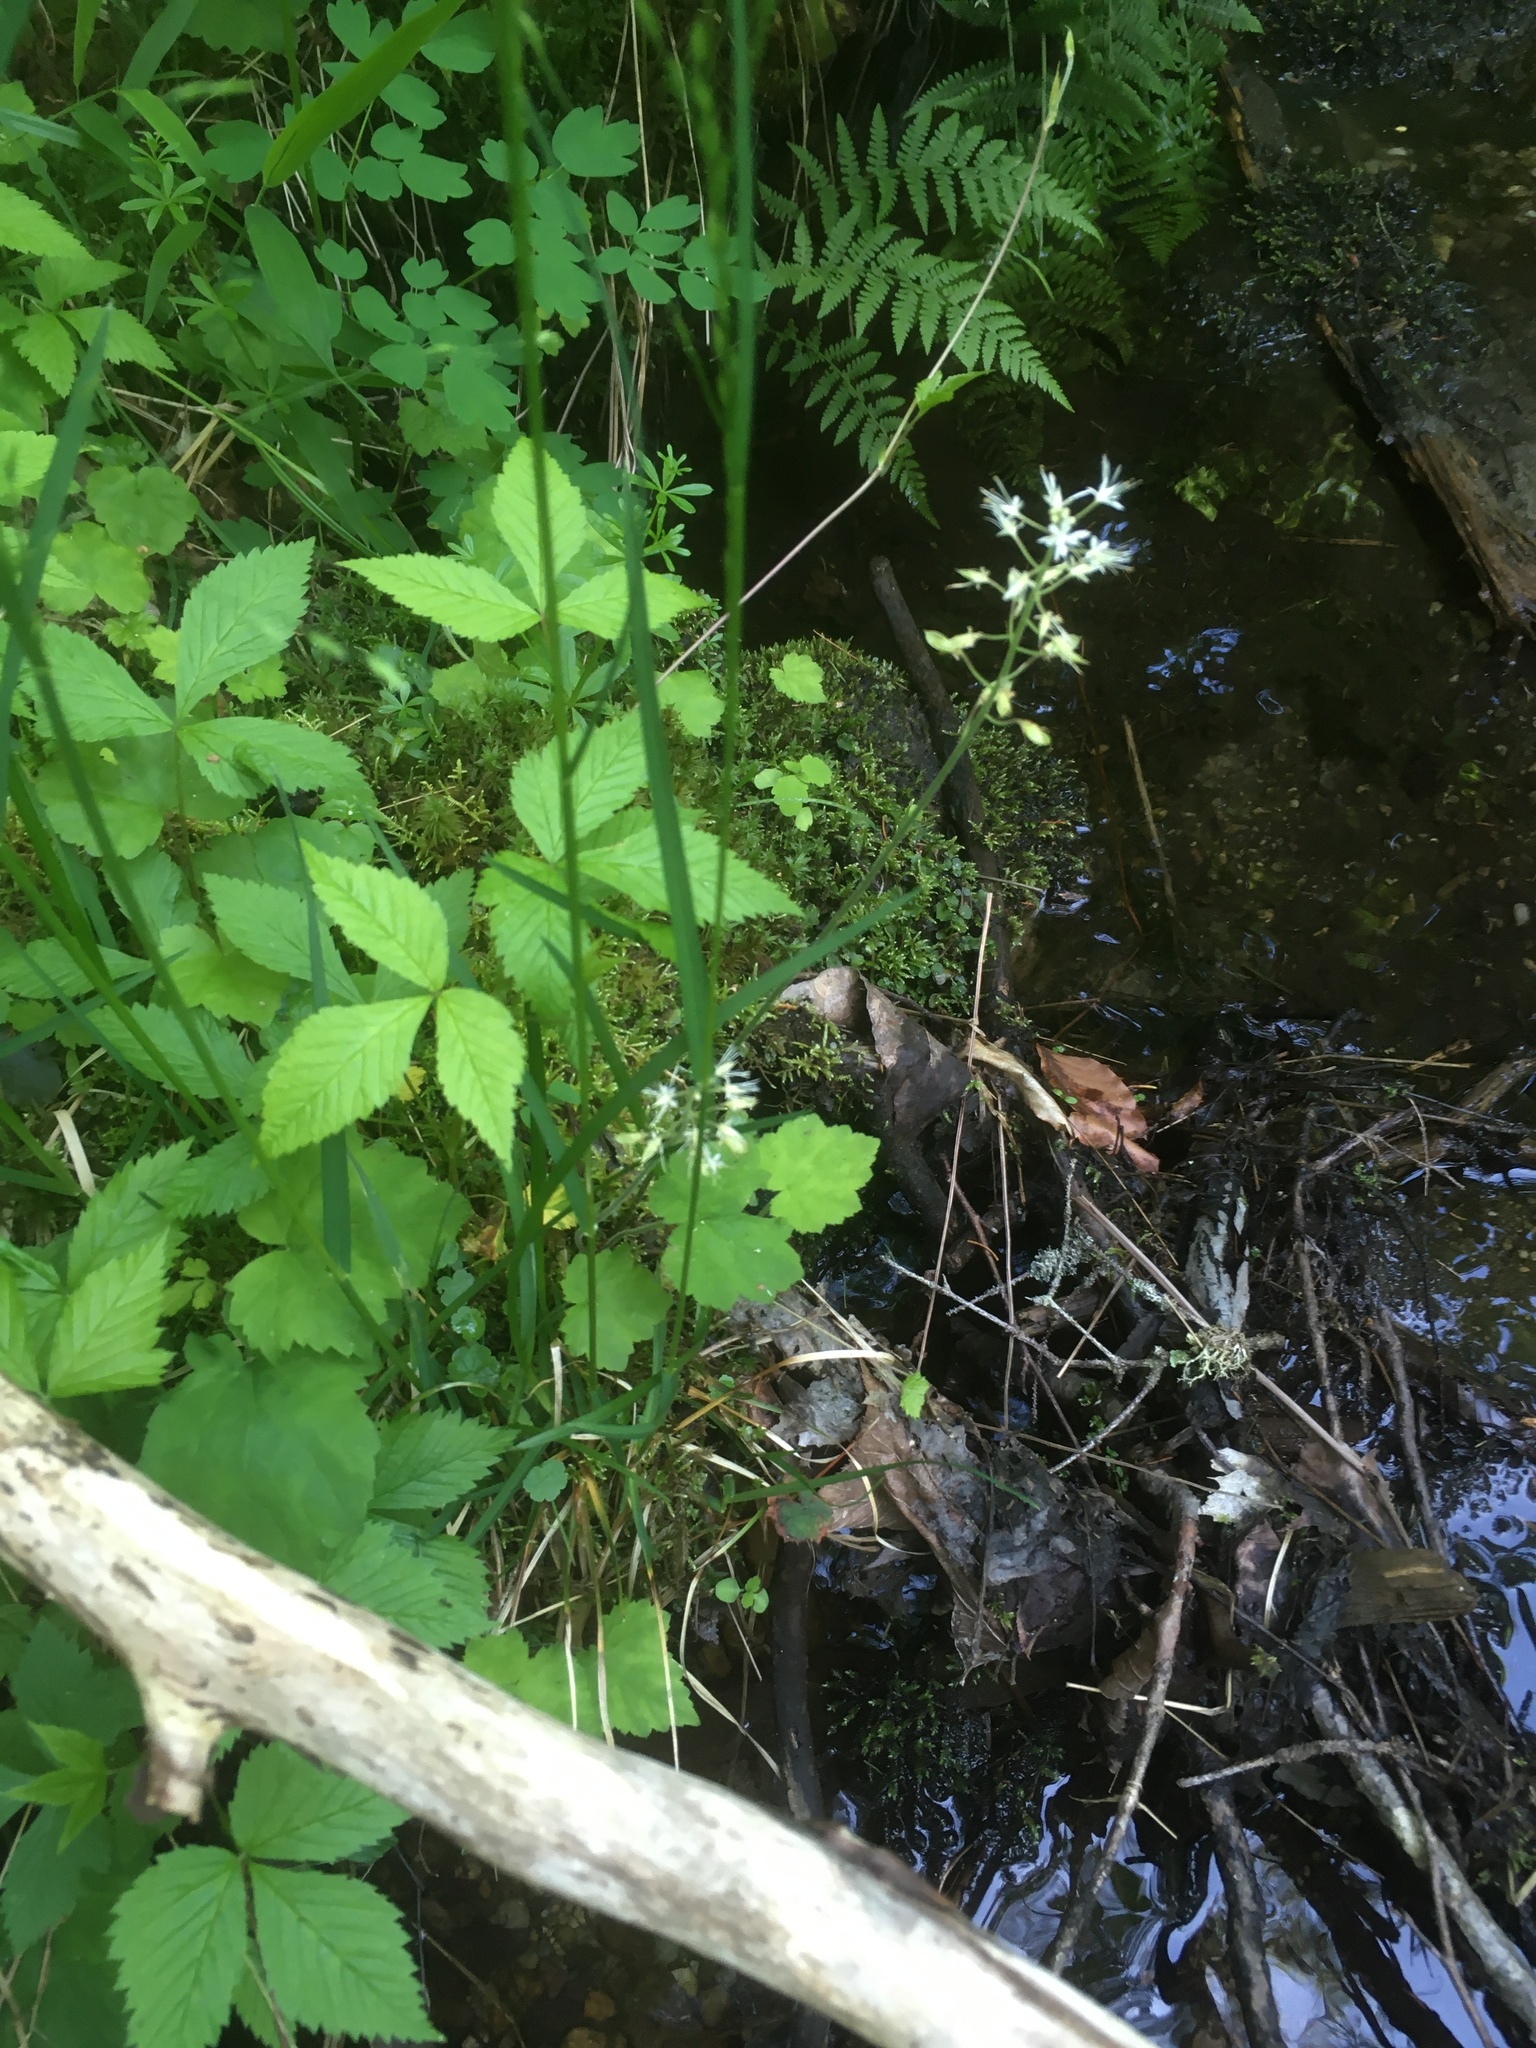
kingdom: Plantae
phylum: Tracheophyta
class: Magnoliopsida
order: Saxifragales
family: Saxifragaceae
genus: Tiarella
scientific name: Tiarella stolonifera
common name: Stoloniferous foamflower
